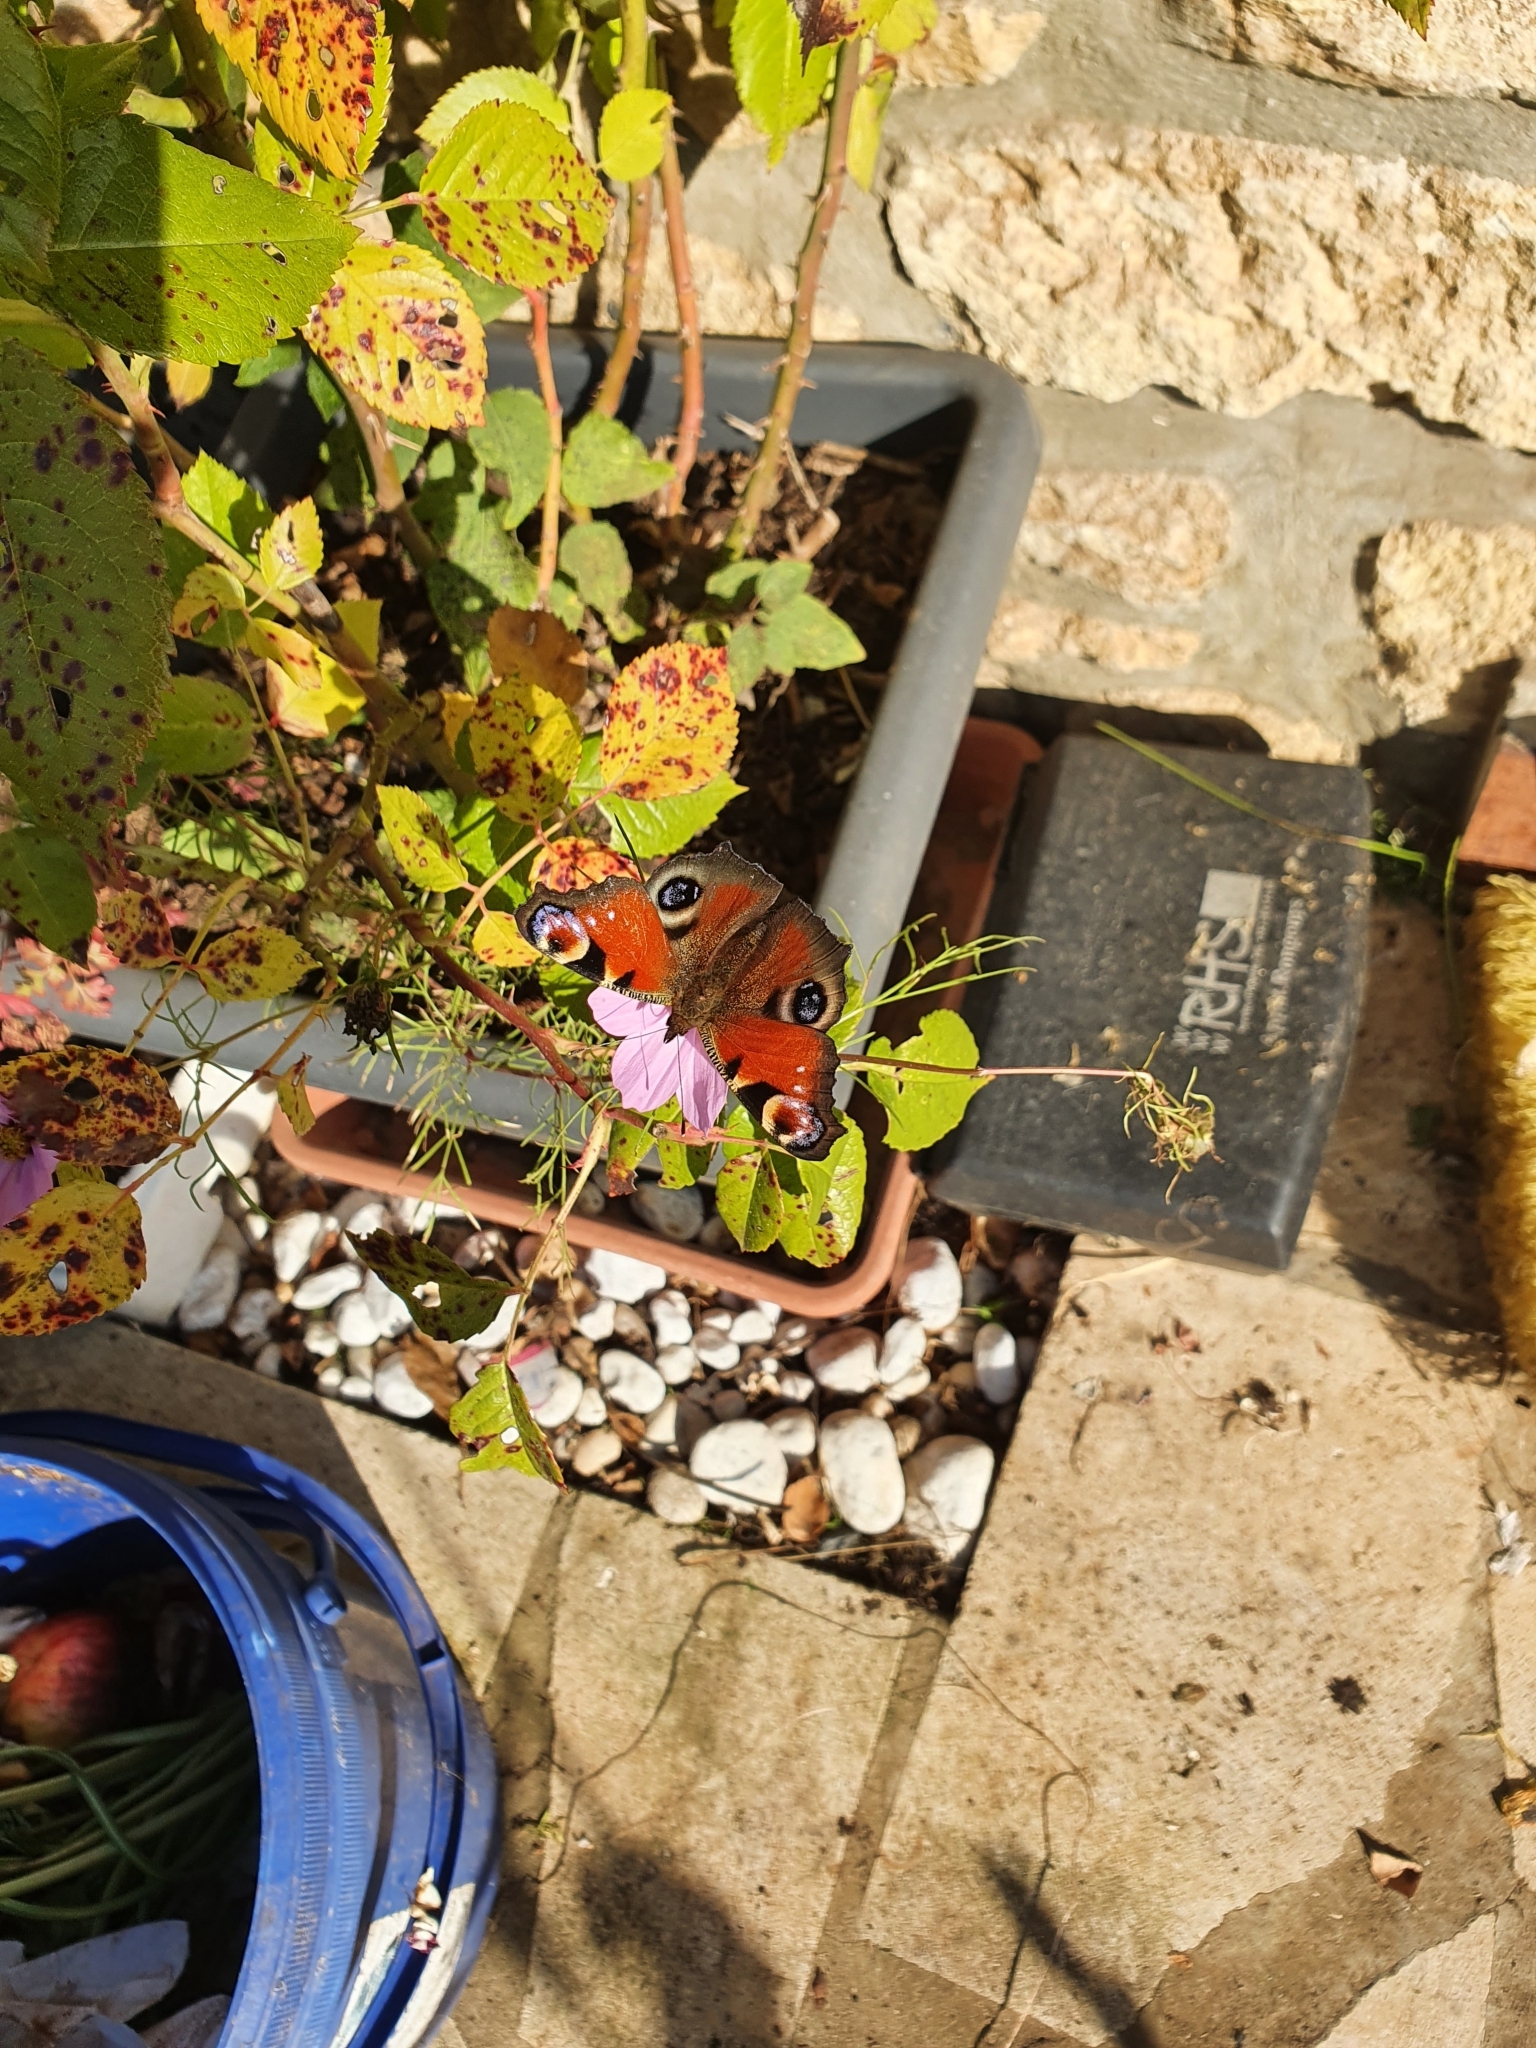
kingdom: Animalia
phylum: Arthropoda
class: Insecta
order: Lepidoptera
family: Nymphalidae
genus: Aglais
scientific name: Aglais io
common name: Peacock
